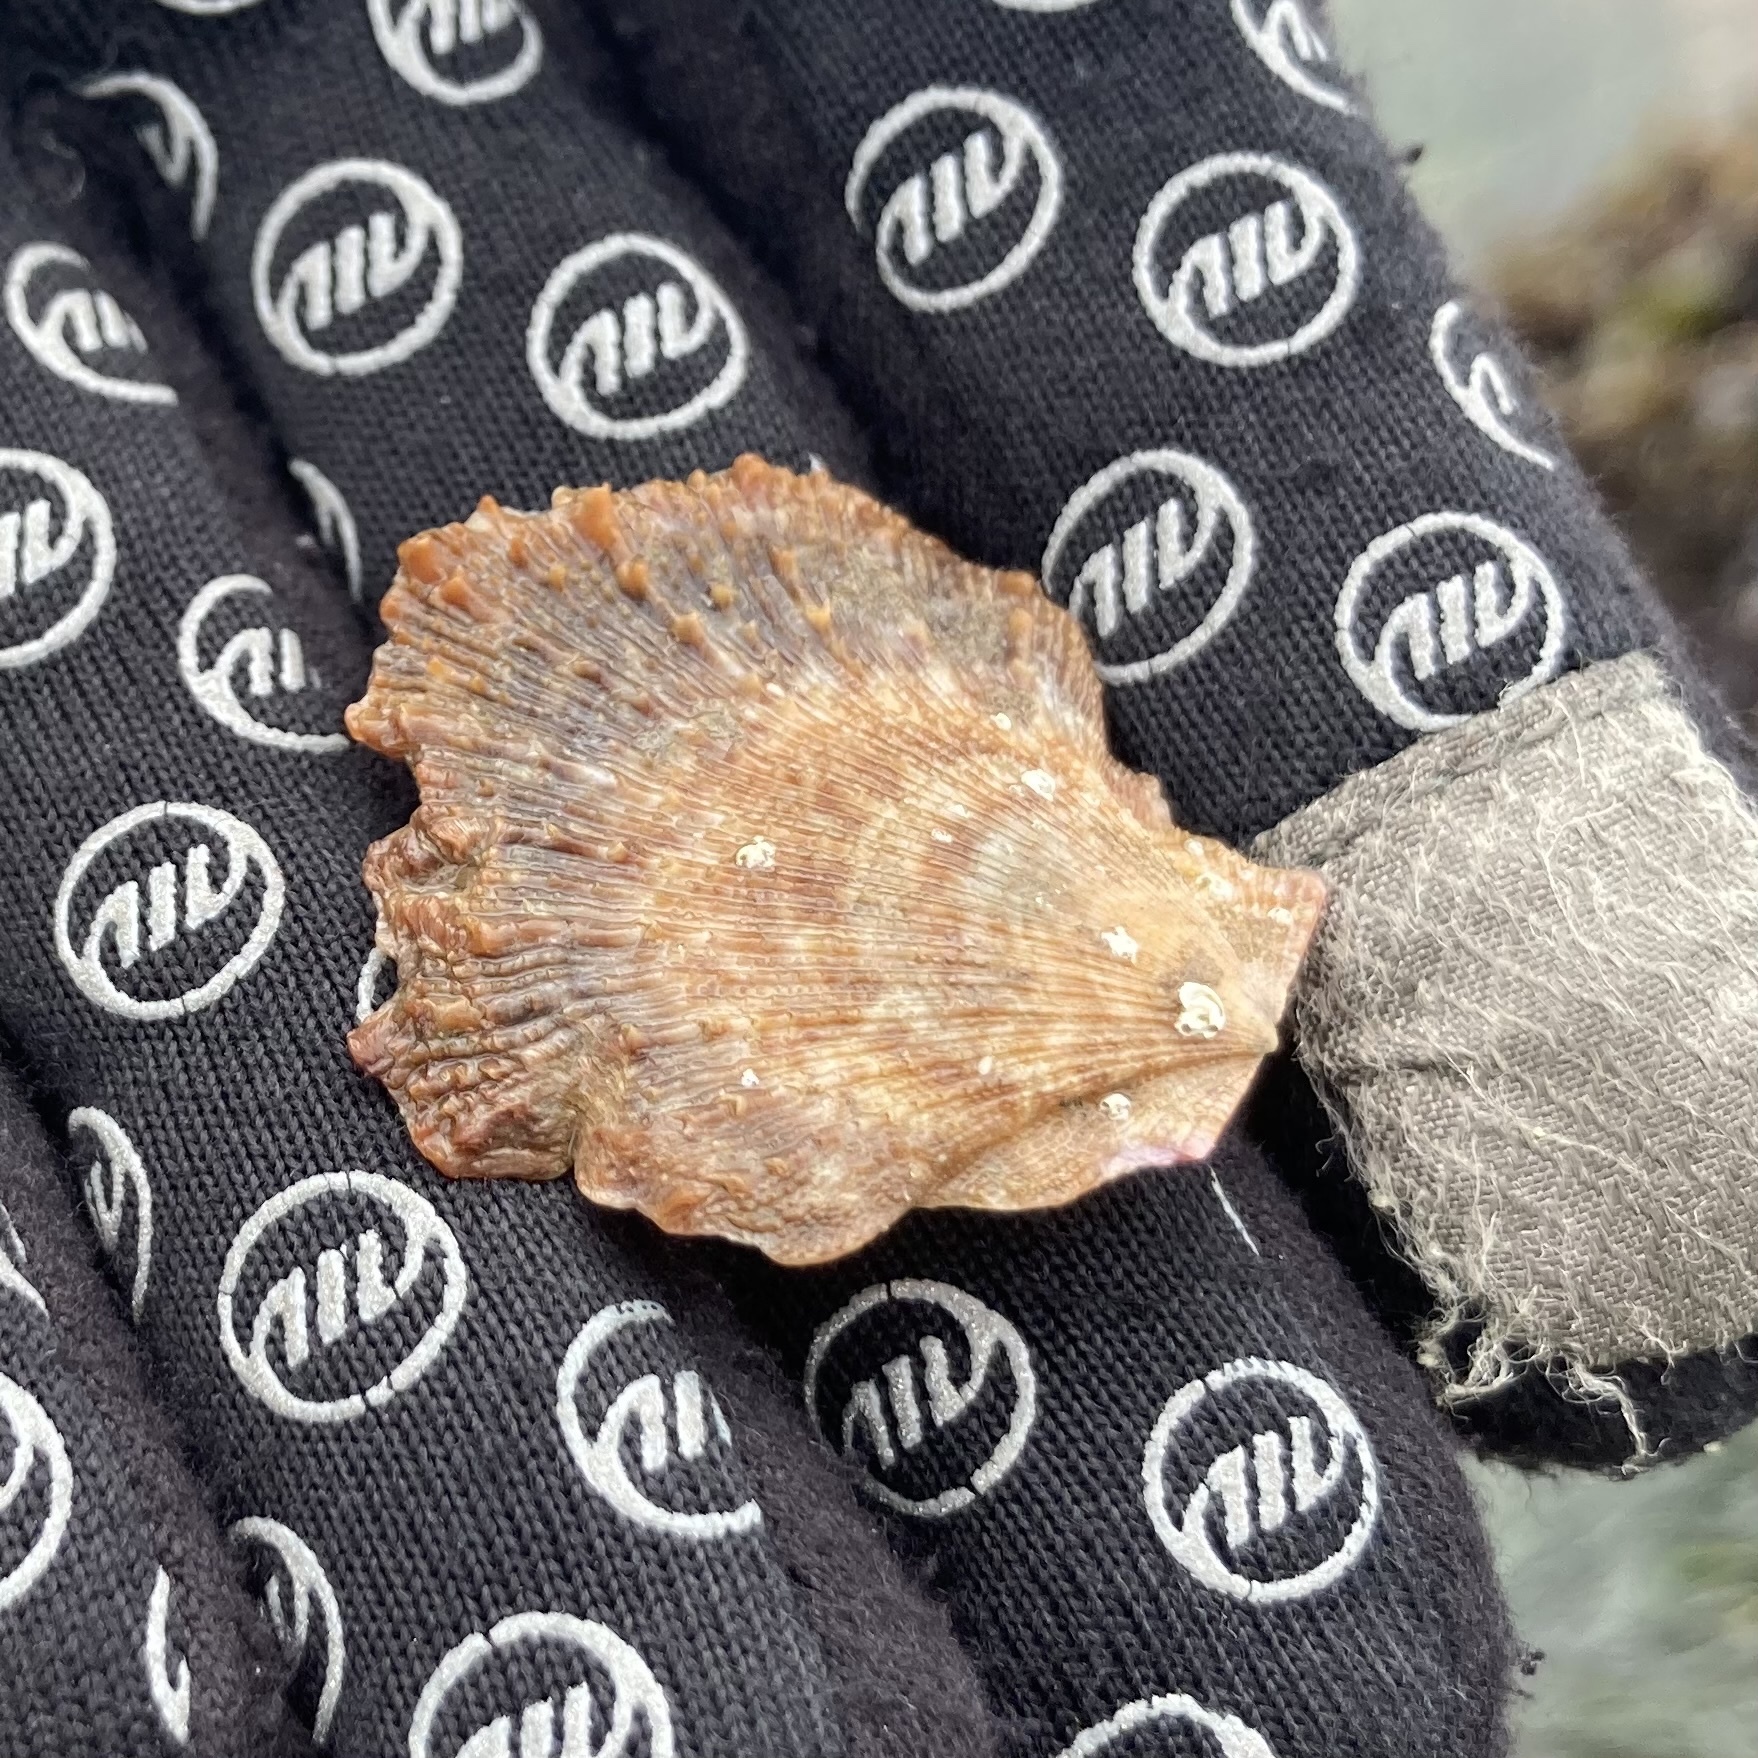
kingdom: Animalia
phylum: Mollusca
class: Bivalvia
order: Pectinida
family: Pectinidae
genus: Crassadoma
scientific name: Crassadoma gigantea
